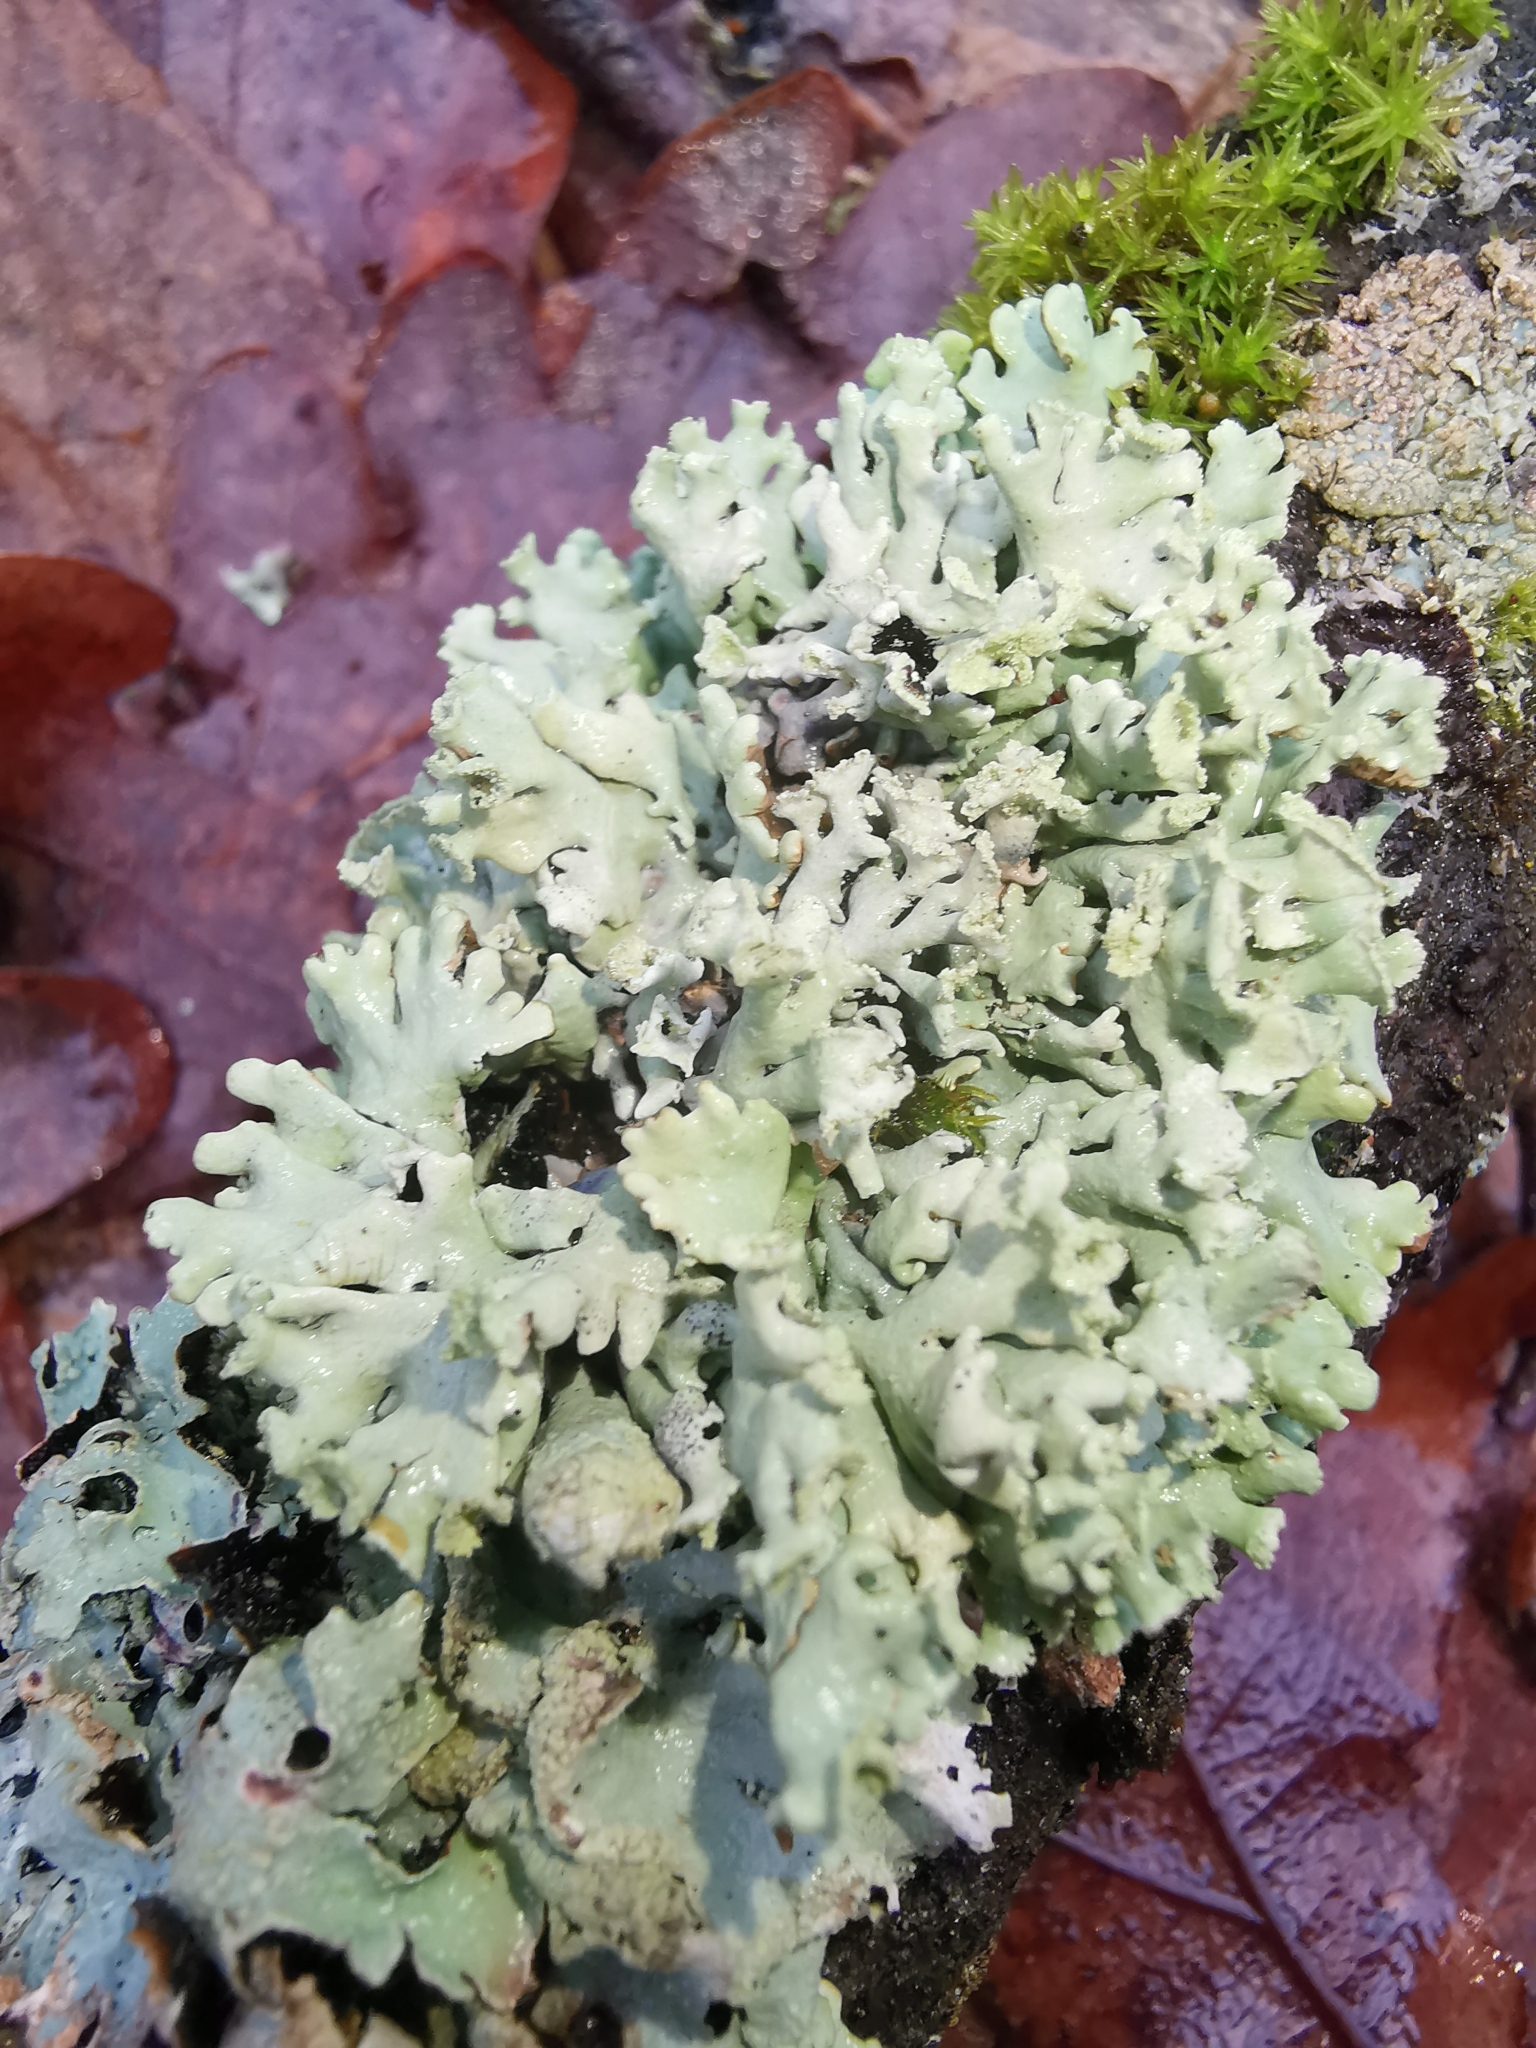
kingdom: Fungi
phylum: Ascomycota
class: Lecanoromycetes
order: Lecanorales
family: Parmeliaceae
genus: Hypogymnia
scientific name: Hypogymnia physodes
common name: Dark crottle
